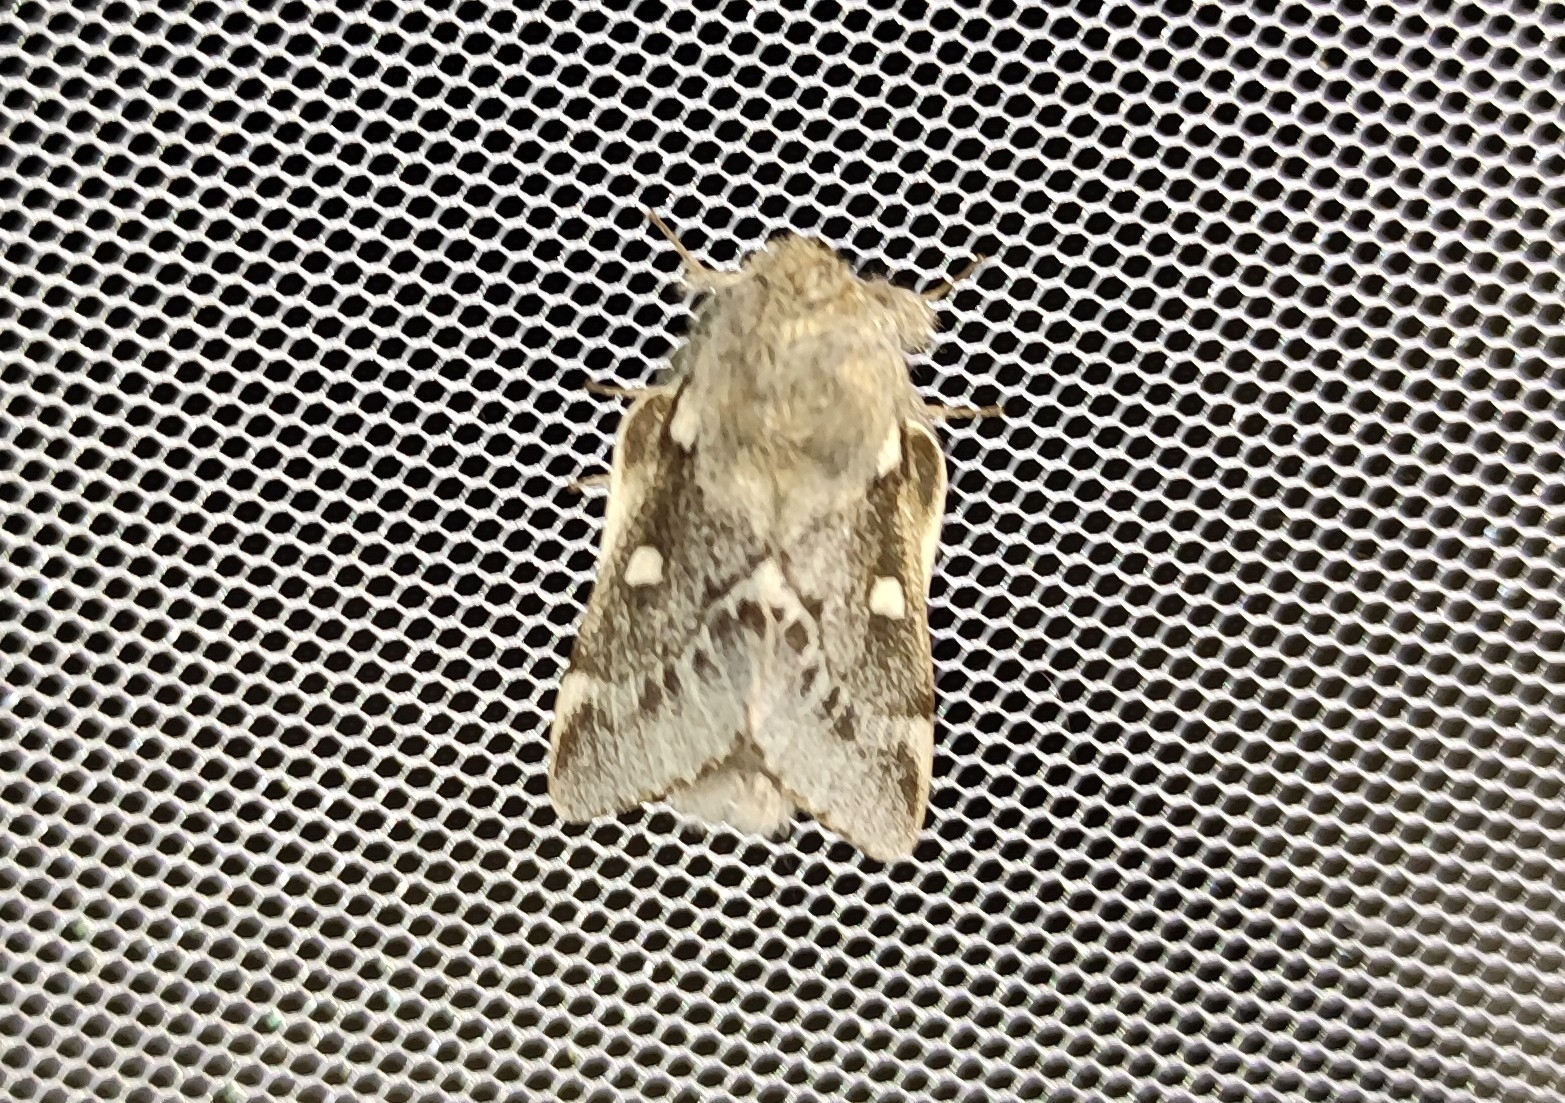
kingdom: Animalia
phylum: Arthropoda
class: Insecta
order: Lepidoptera
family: Lasiocampidae
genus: Eriogaster
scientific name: Eriogaster lanestris
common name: Small eggar
